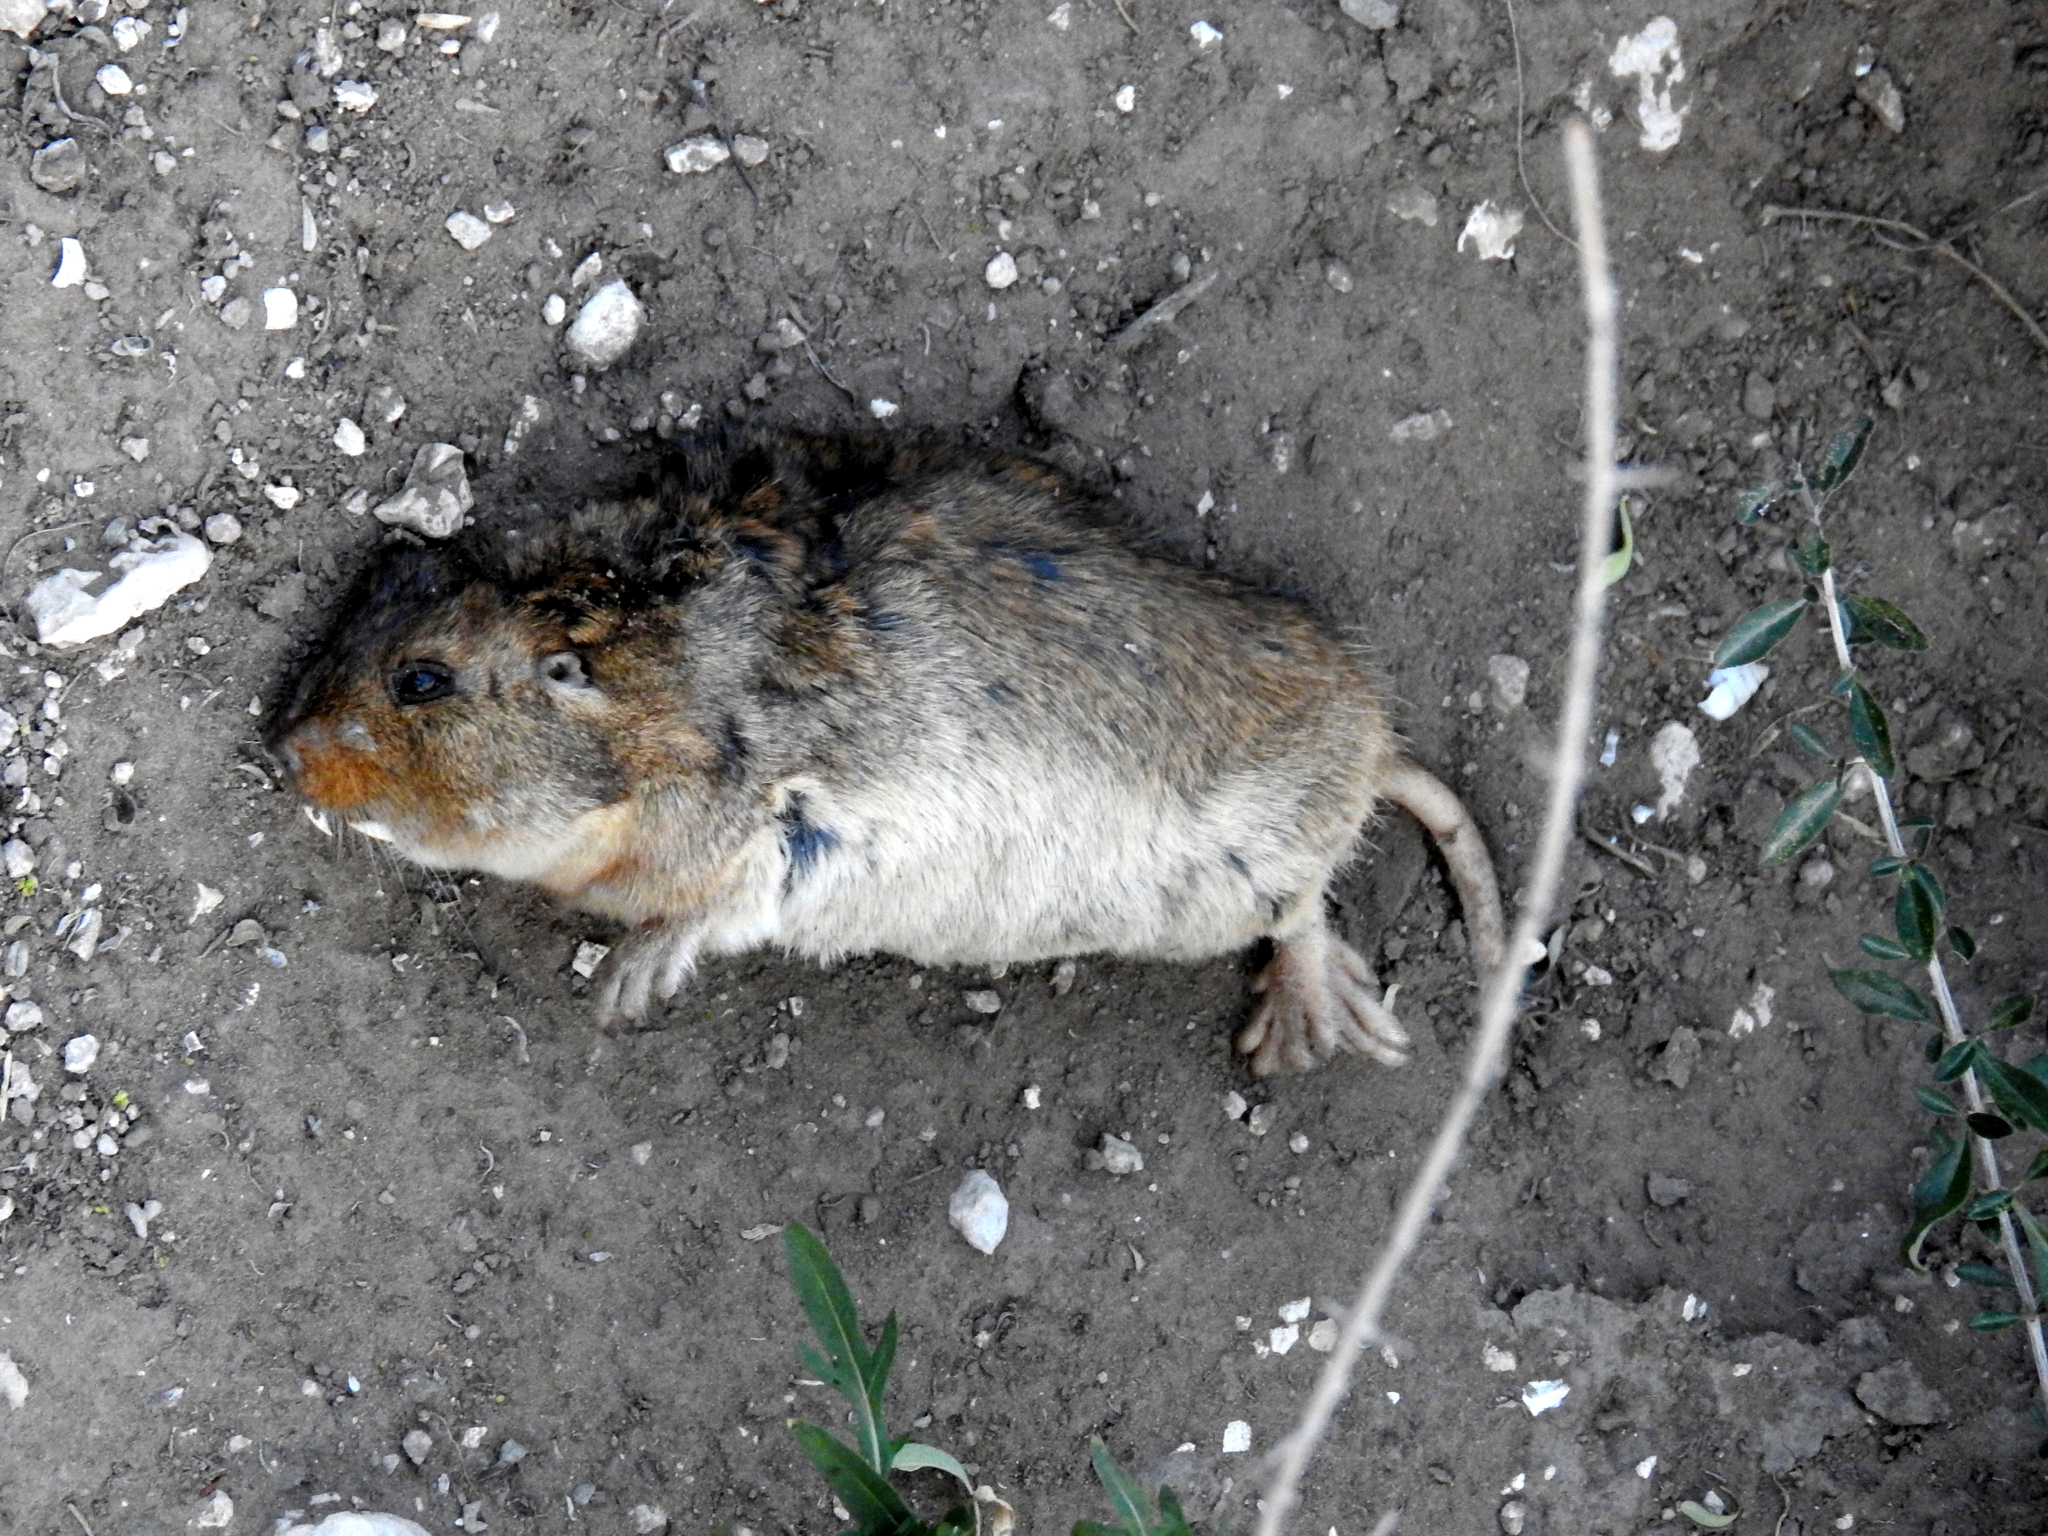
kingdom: Animalia
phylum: Chordata
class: Mammalia
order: Rodentia
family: Ctenomyidae
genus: Ctenomys
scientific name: Ctenomys talarum
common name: Talas tuco-tuco
